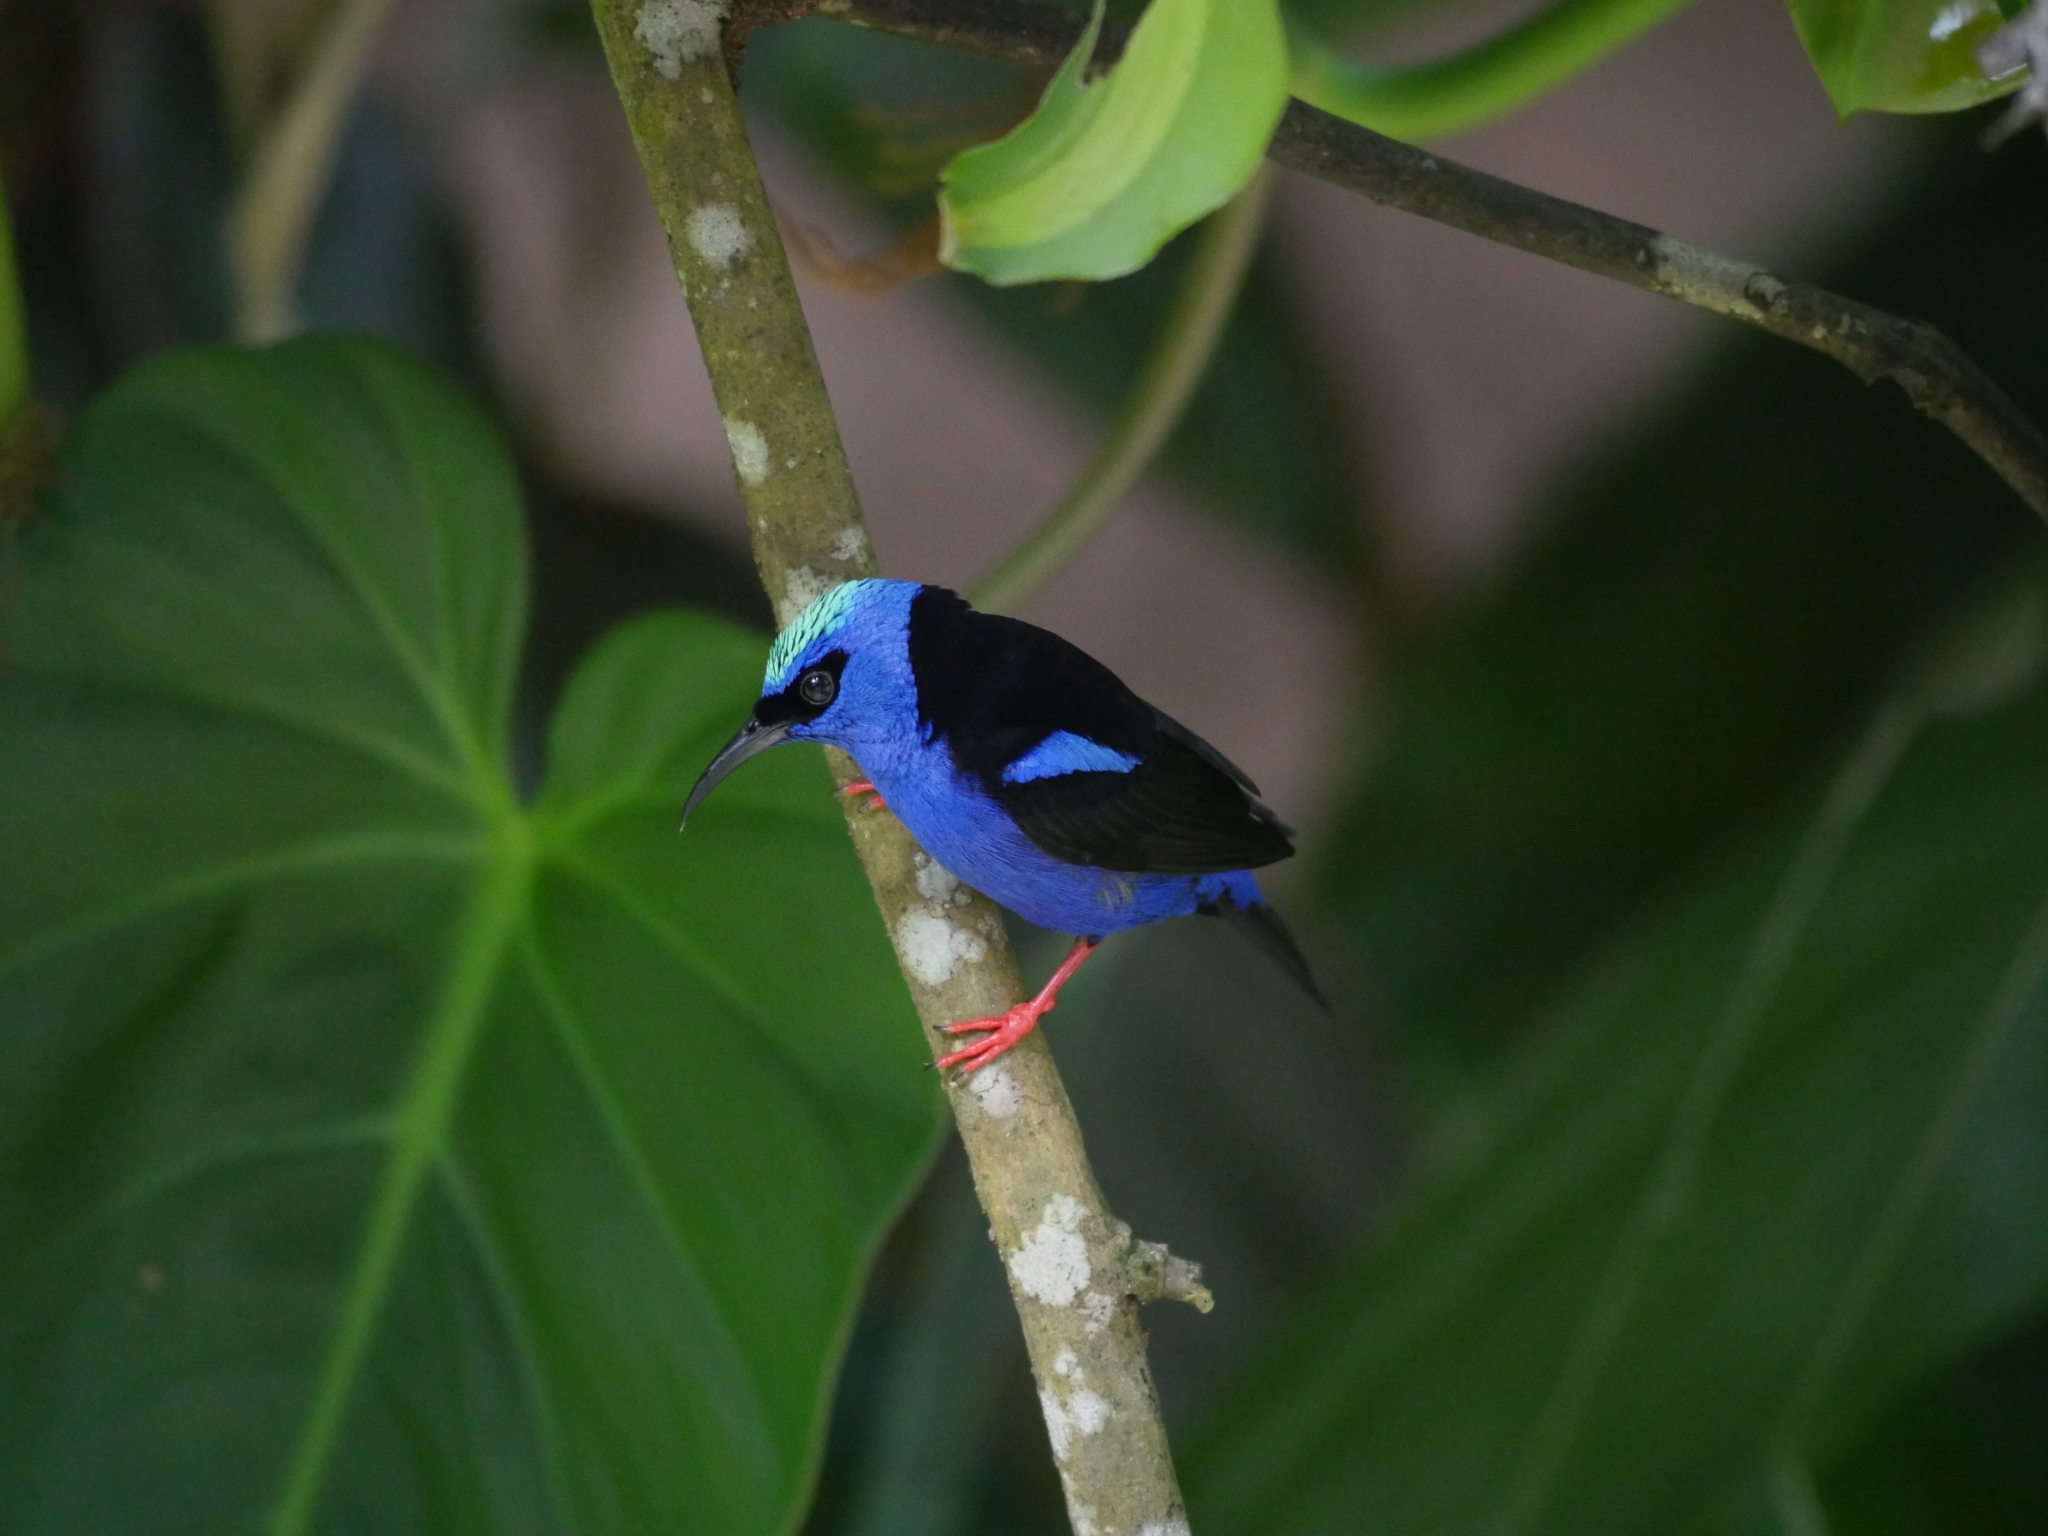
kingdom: Animalia
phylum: Chordata
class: Aves
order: Passeriformes
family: Thraupidae
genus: Cyanerpes
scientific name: Cyanerpes cyaneus
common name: Red-legged honeycreeper
